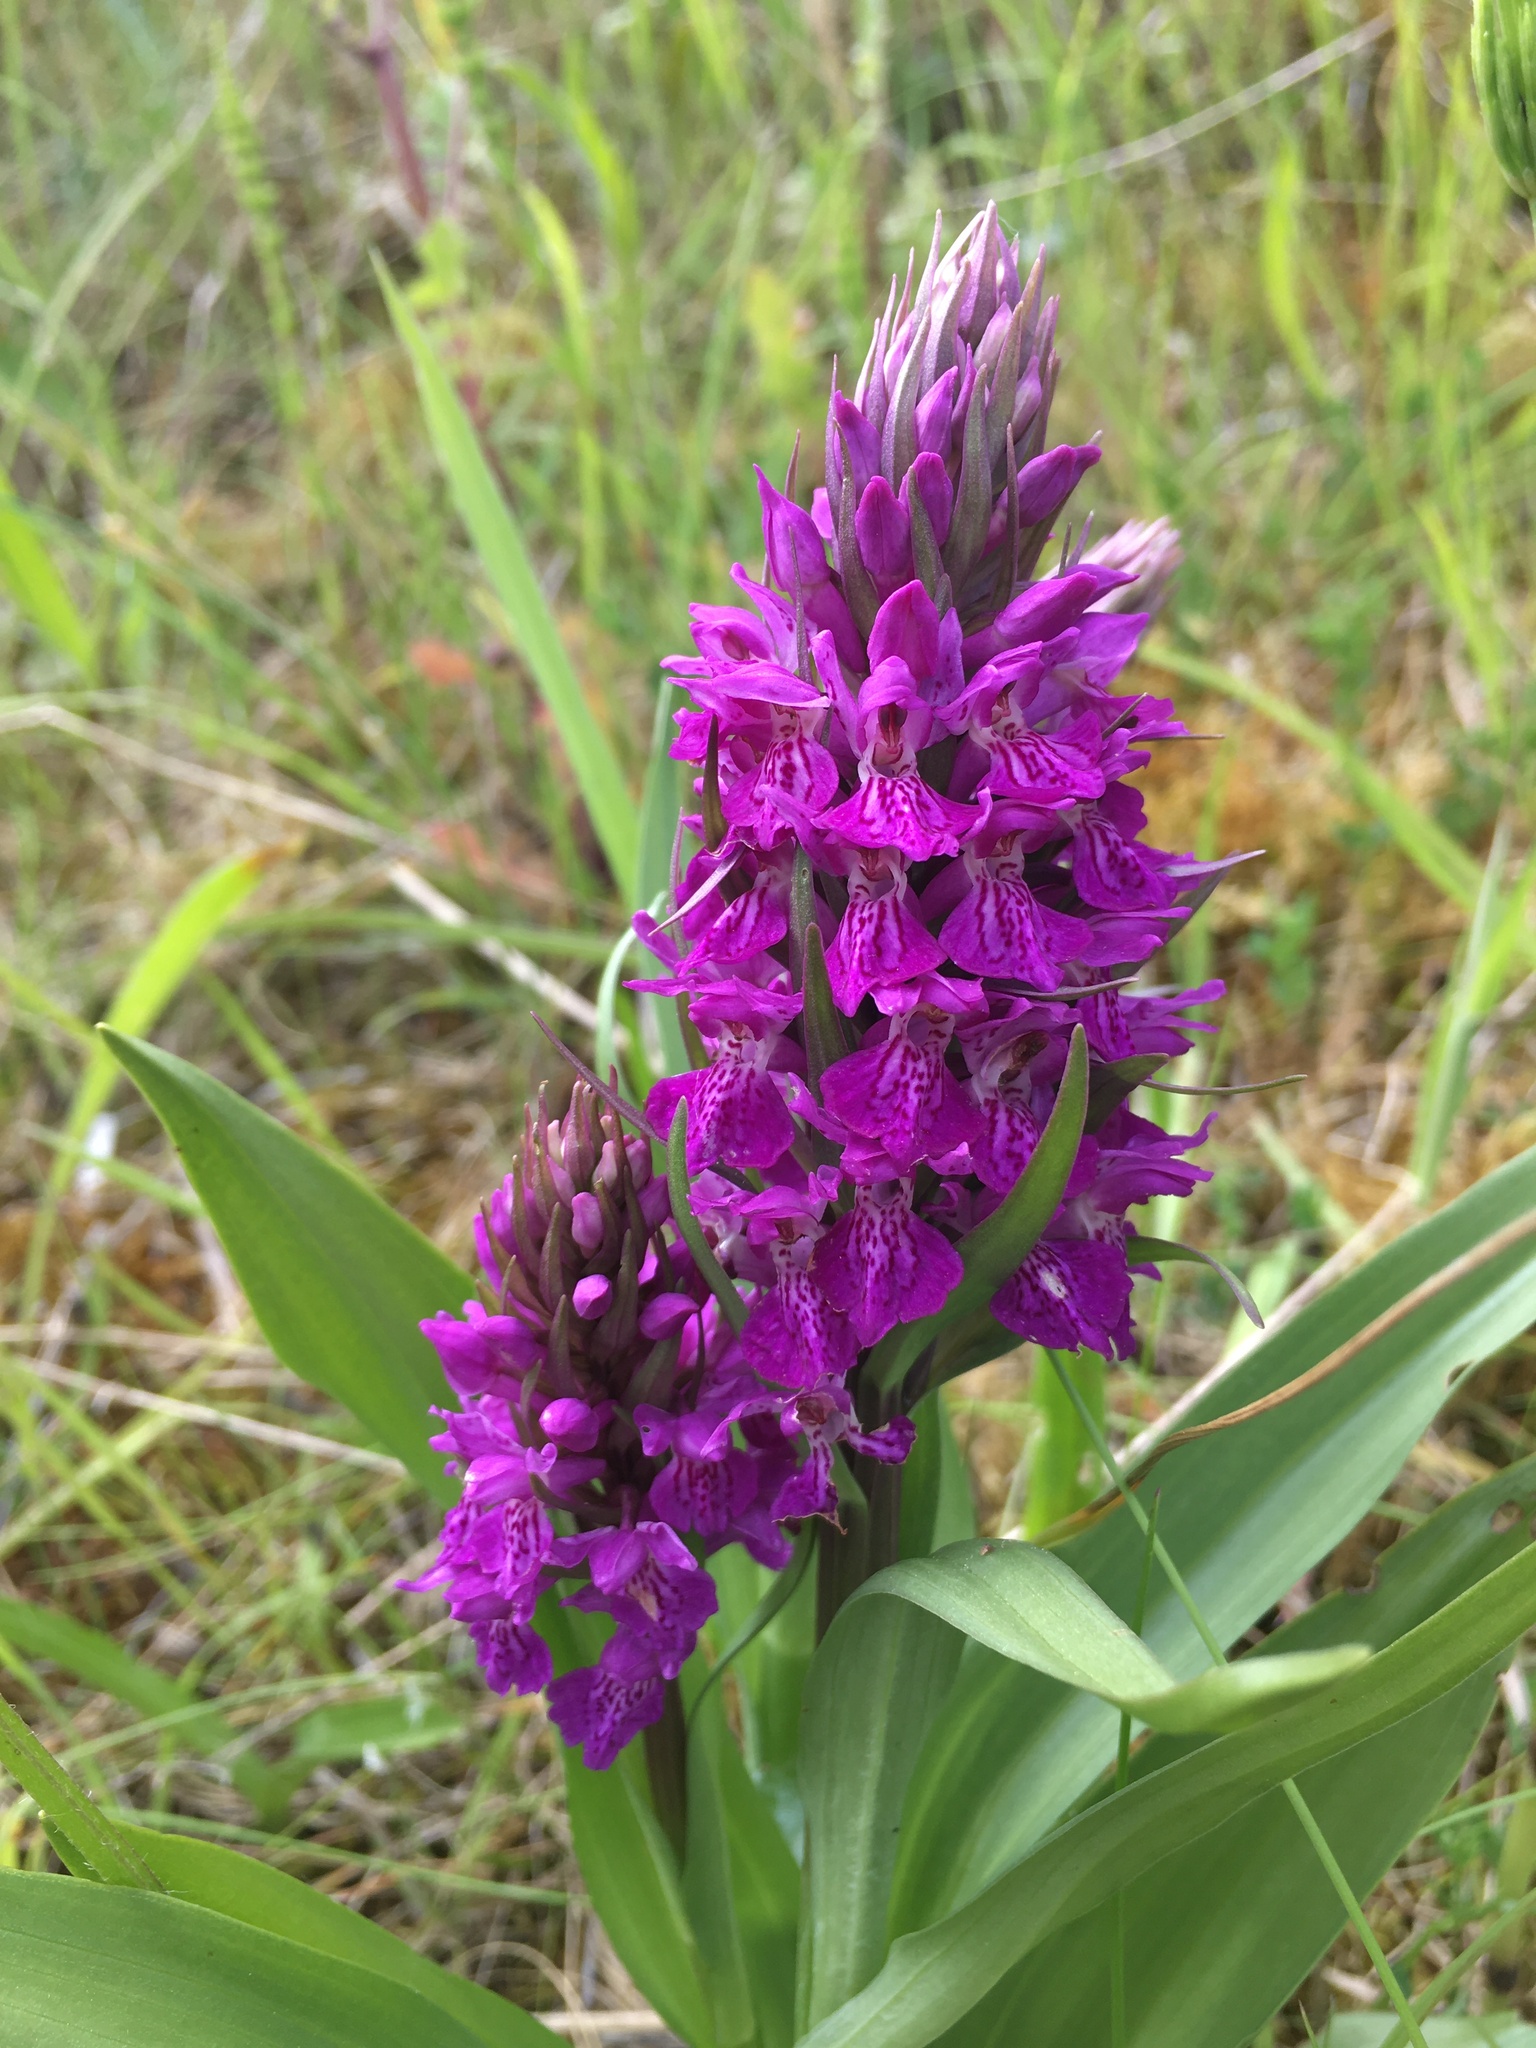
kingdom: Plantae
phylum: Tracheophyta
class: Liliopsida
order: Asparagales
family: Orchidaceae
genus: Dactylorhiza
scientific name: Dactylorhiza majalis
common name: Marsh orchid
